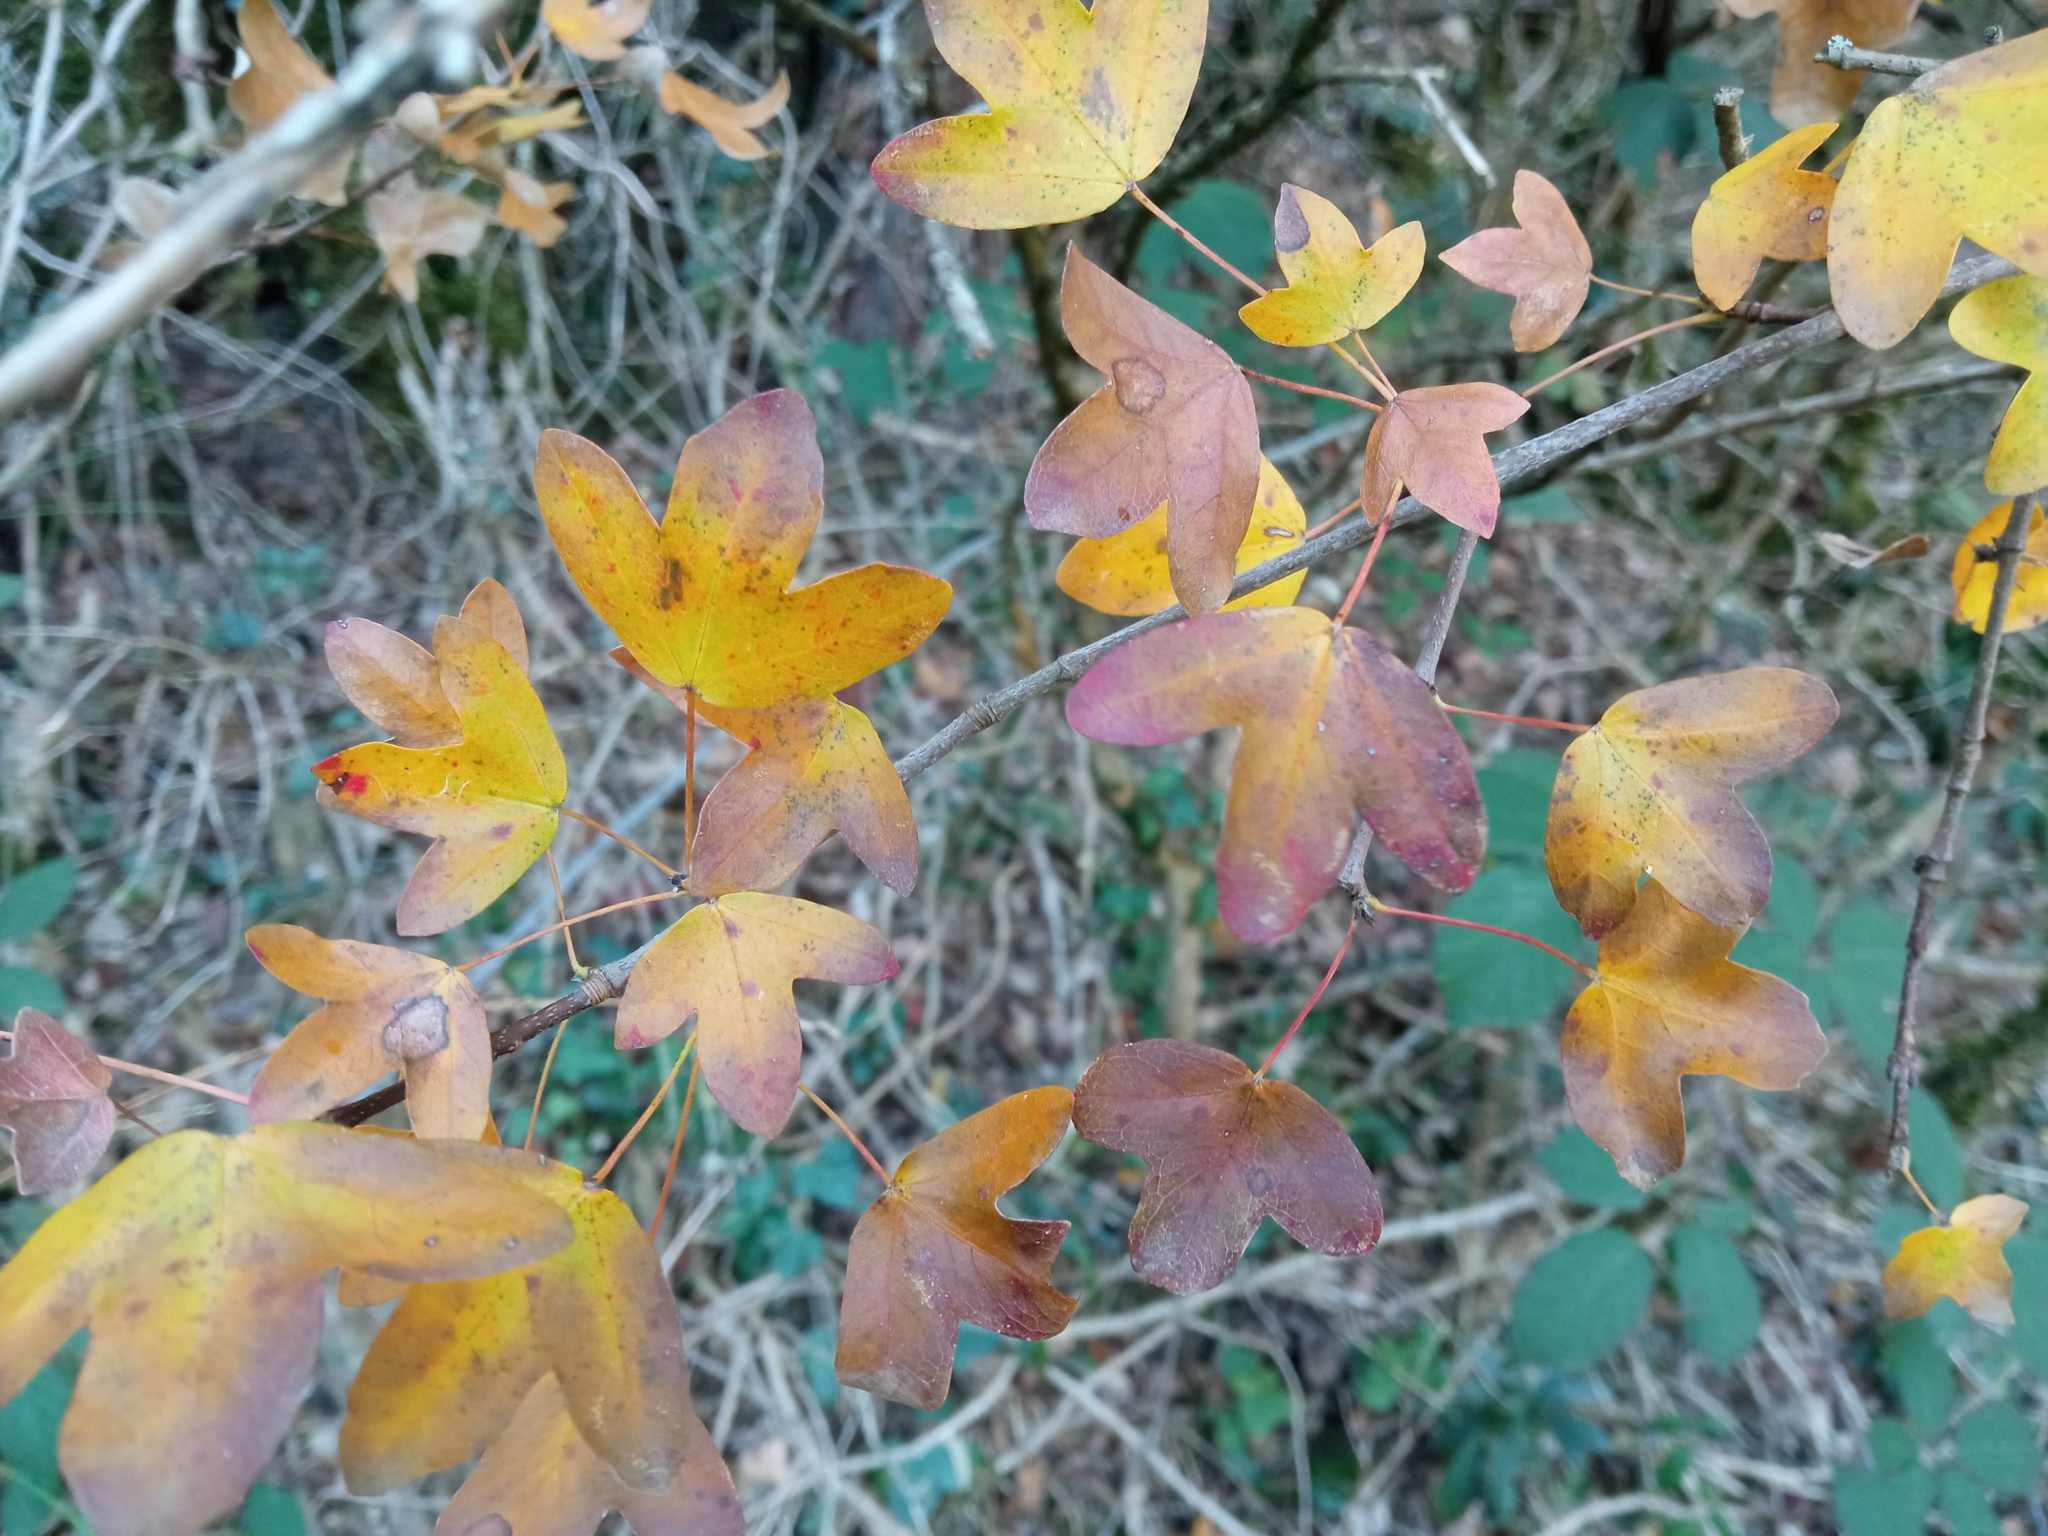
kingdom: Plantae
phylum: Tracheophyta
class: Magnoliopsida
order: Sapindales
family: Sapindaceae
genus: Acer
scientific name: Acer monspessulanum
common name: Montpellier maple
